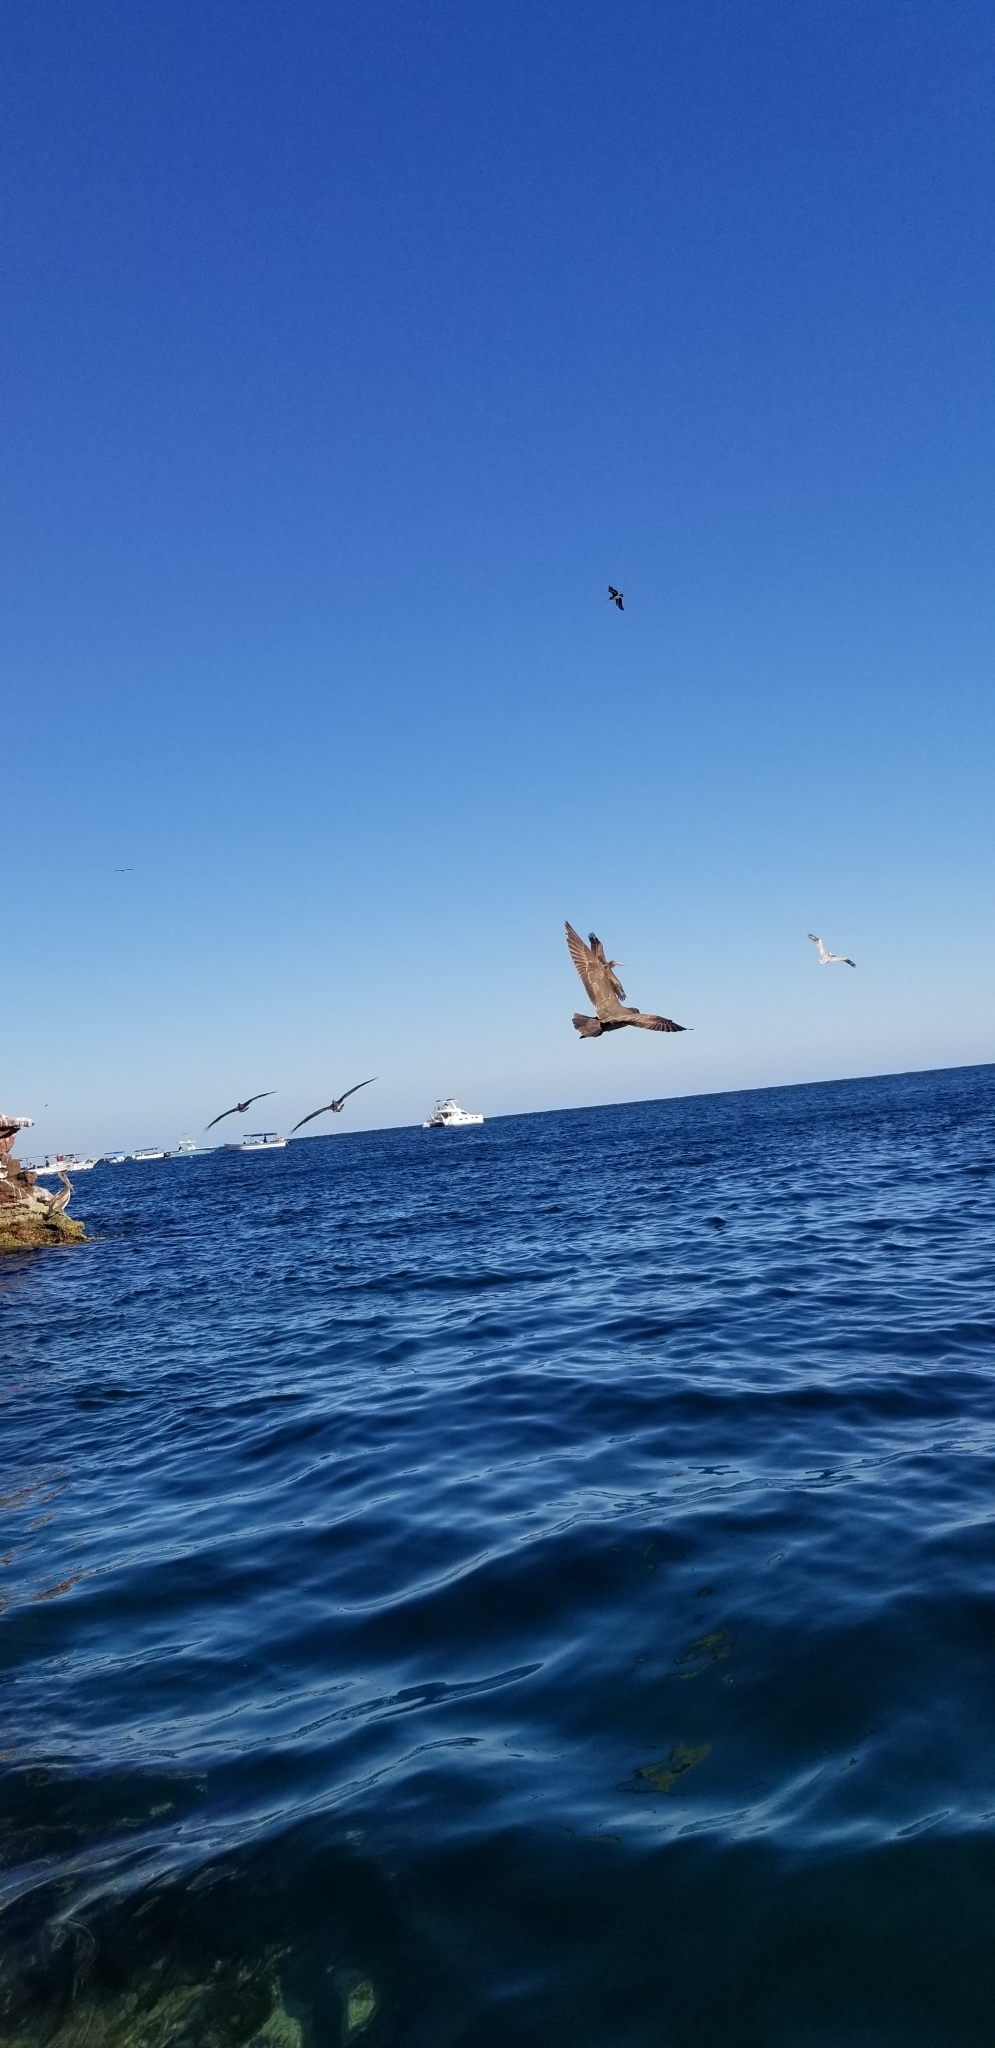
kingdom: Animalia
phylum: Chordata
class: Aves
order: Charadriiformes
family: Laridae
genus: Larus
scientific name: Larus heermanni
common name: Heermann's gull
